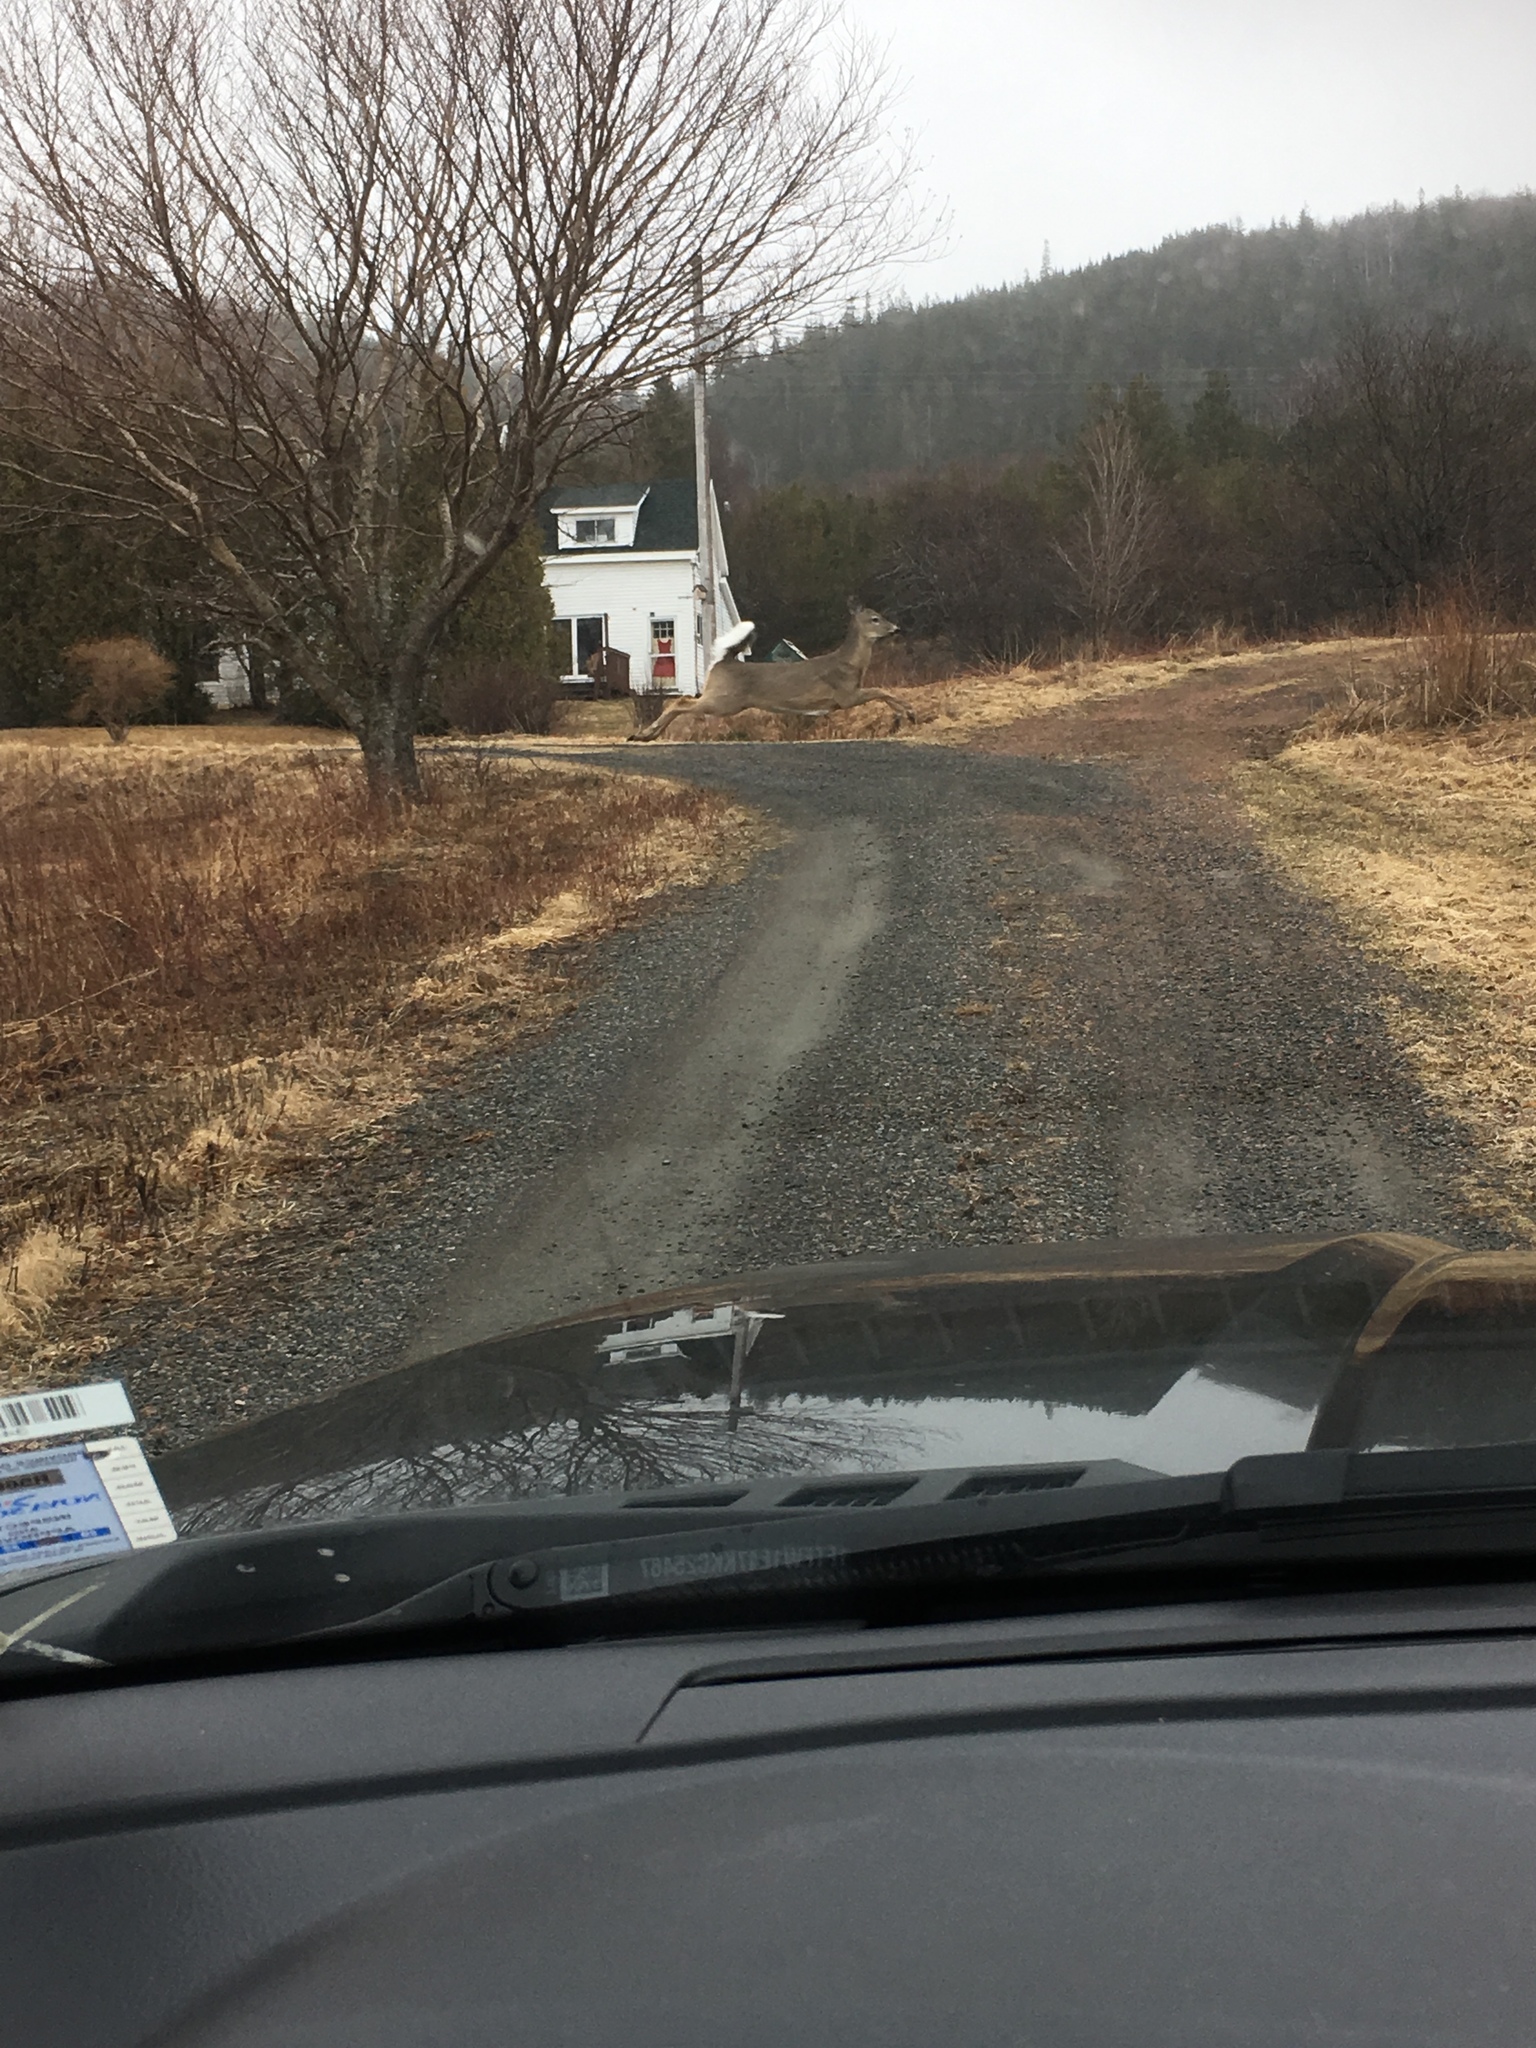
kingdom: Animalia
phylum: Chordata
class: Mammalia
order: Artiodactyla
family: Cervidae
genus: Odocoileus
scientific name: Odocoileus virginianus
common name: White-tailed deer
